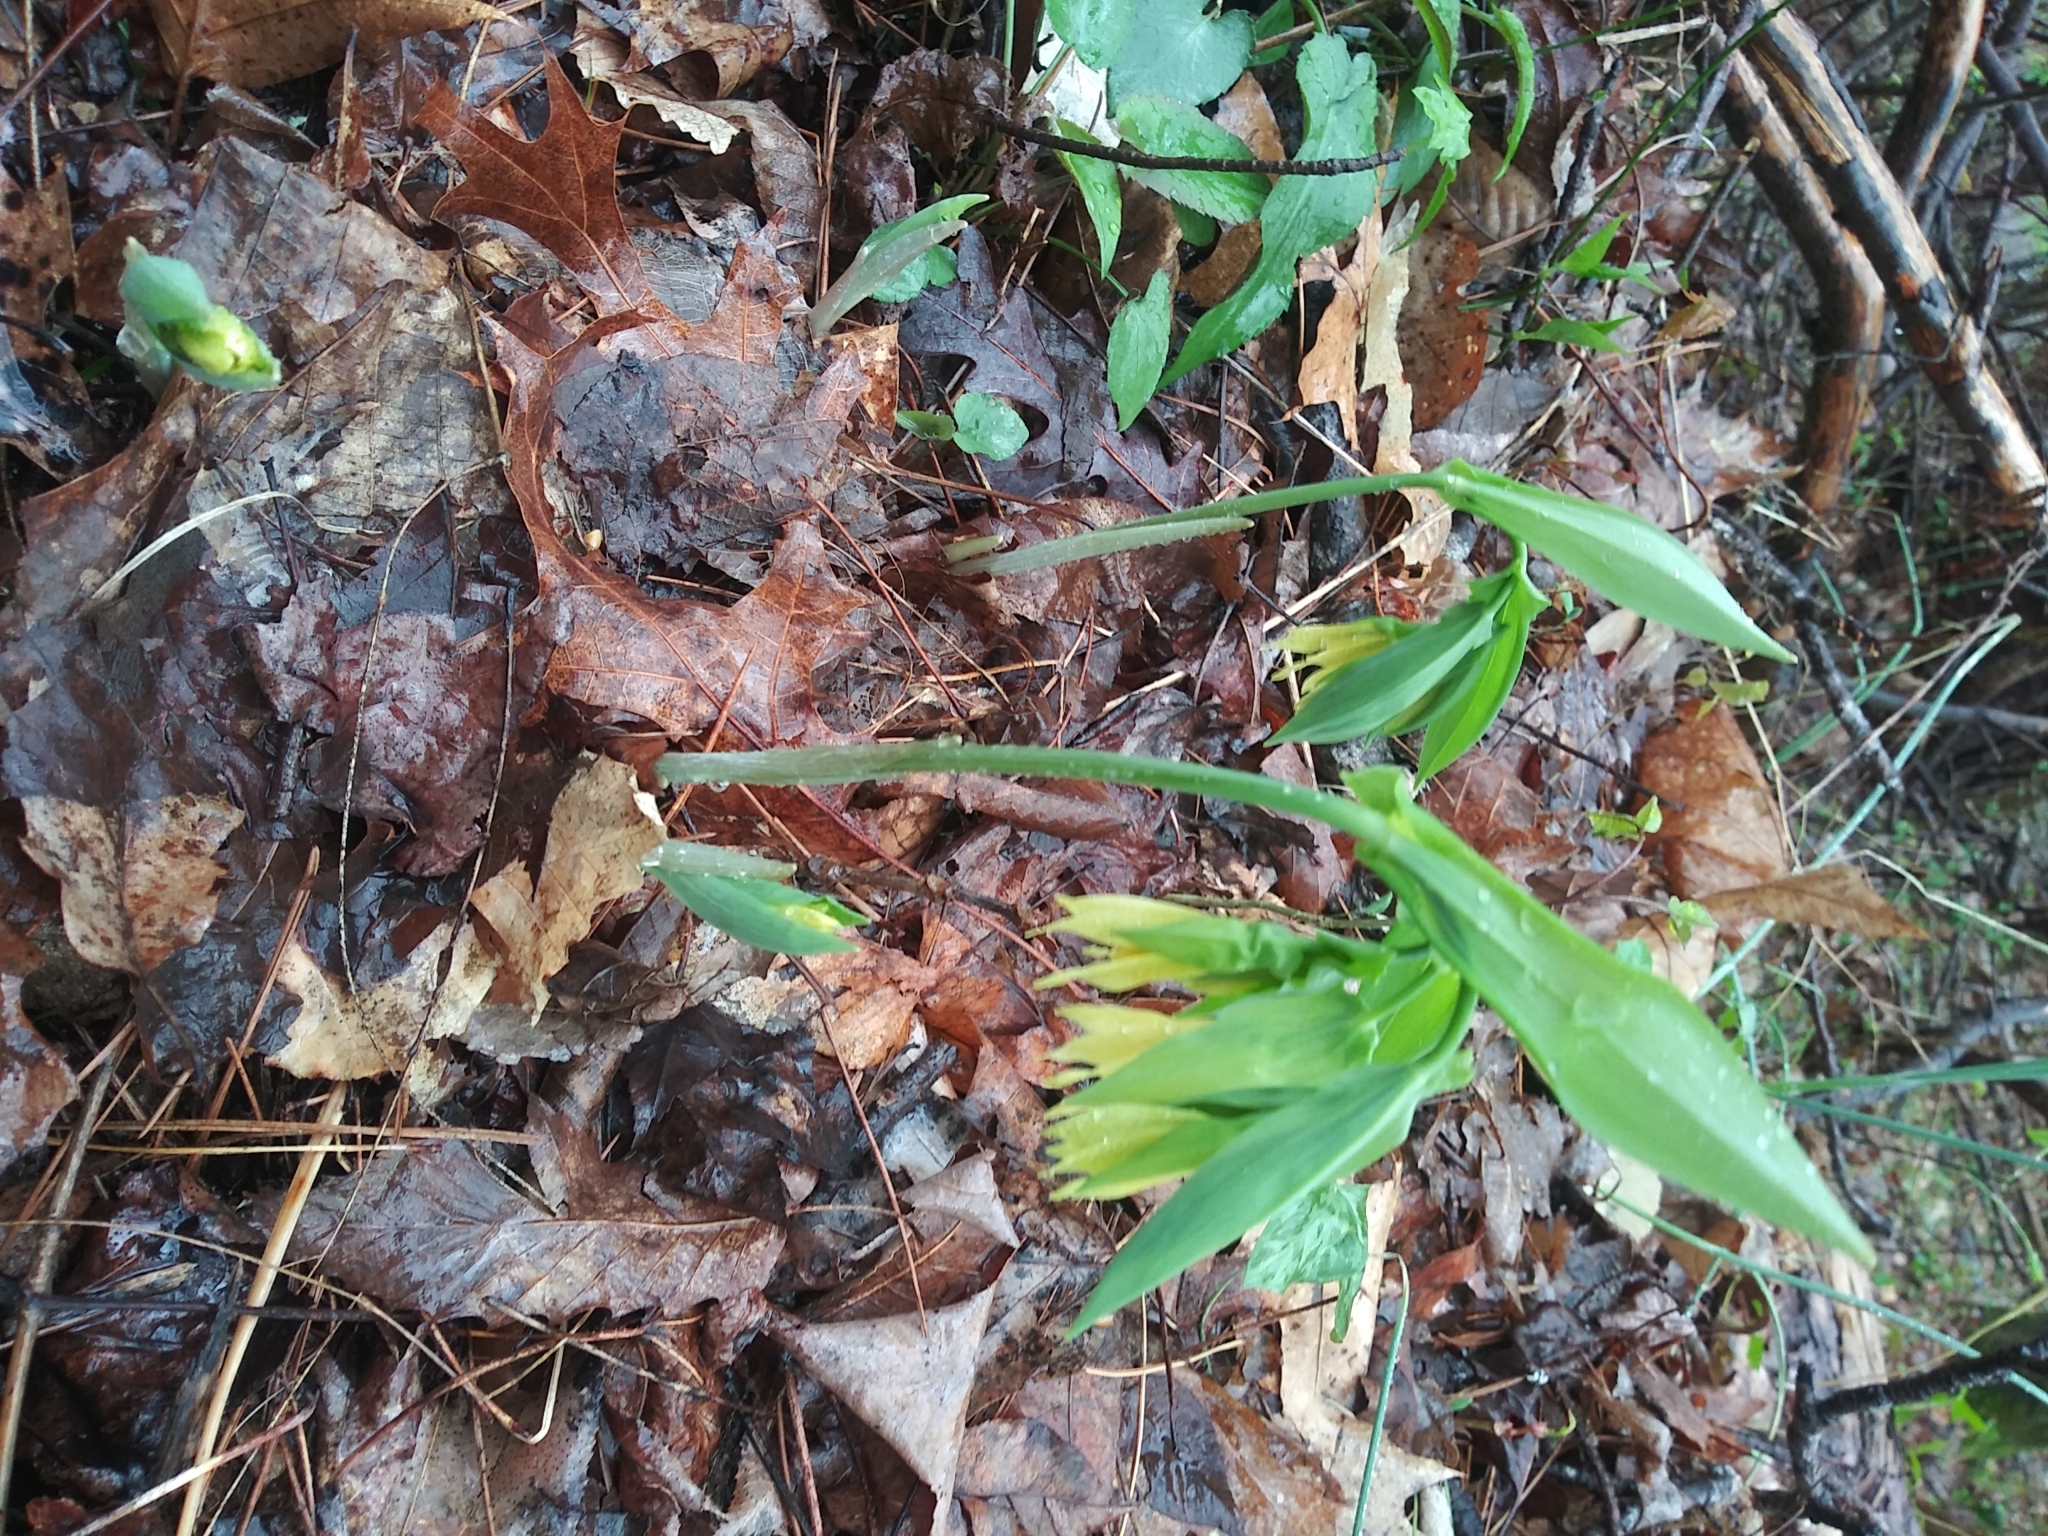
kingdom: Plantae
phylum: Tracheophyta
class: Liliopsida
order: Liliales
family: Colchicaceae
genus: Uvularia
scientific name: Uvularia grandiflora
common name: Bellwort
